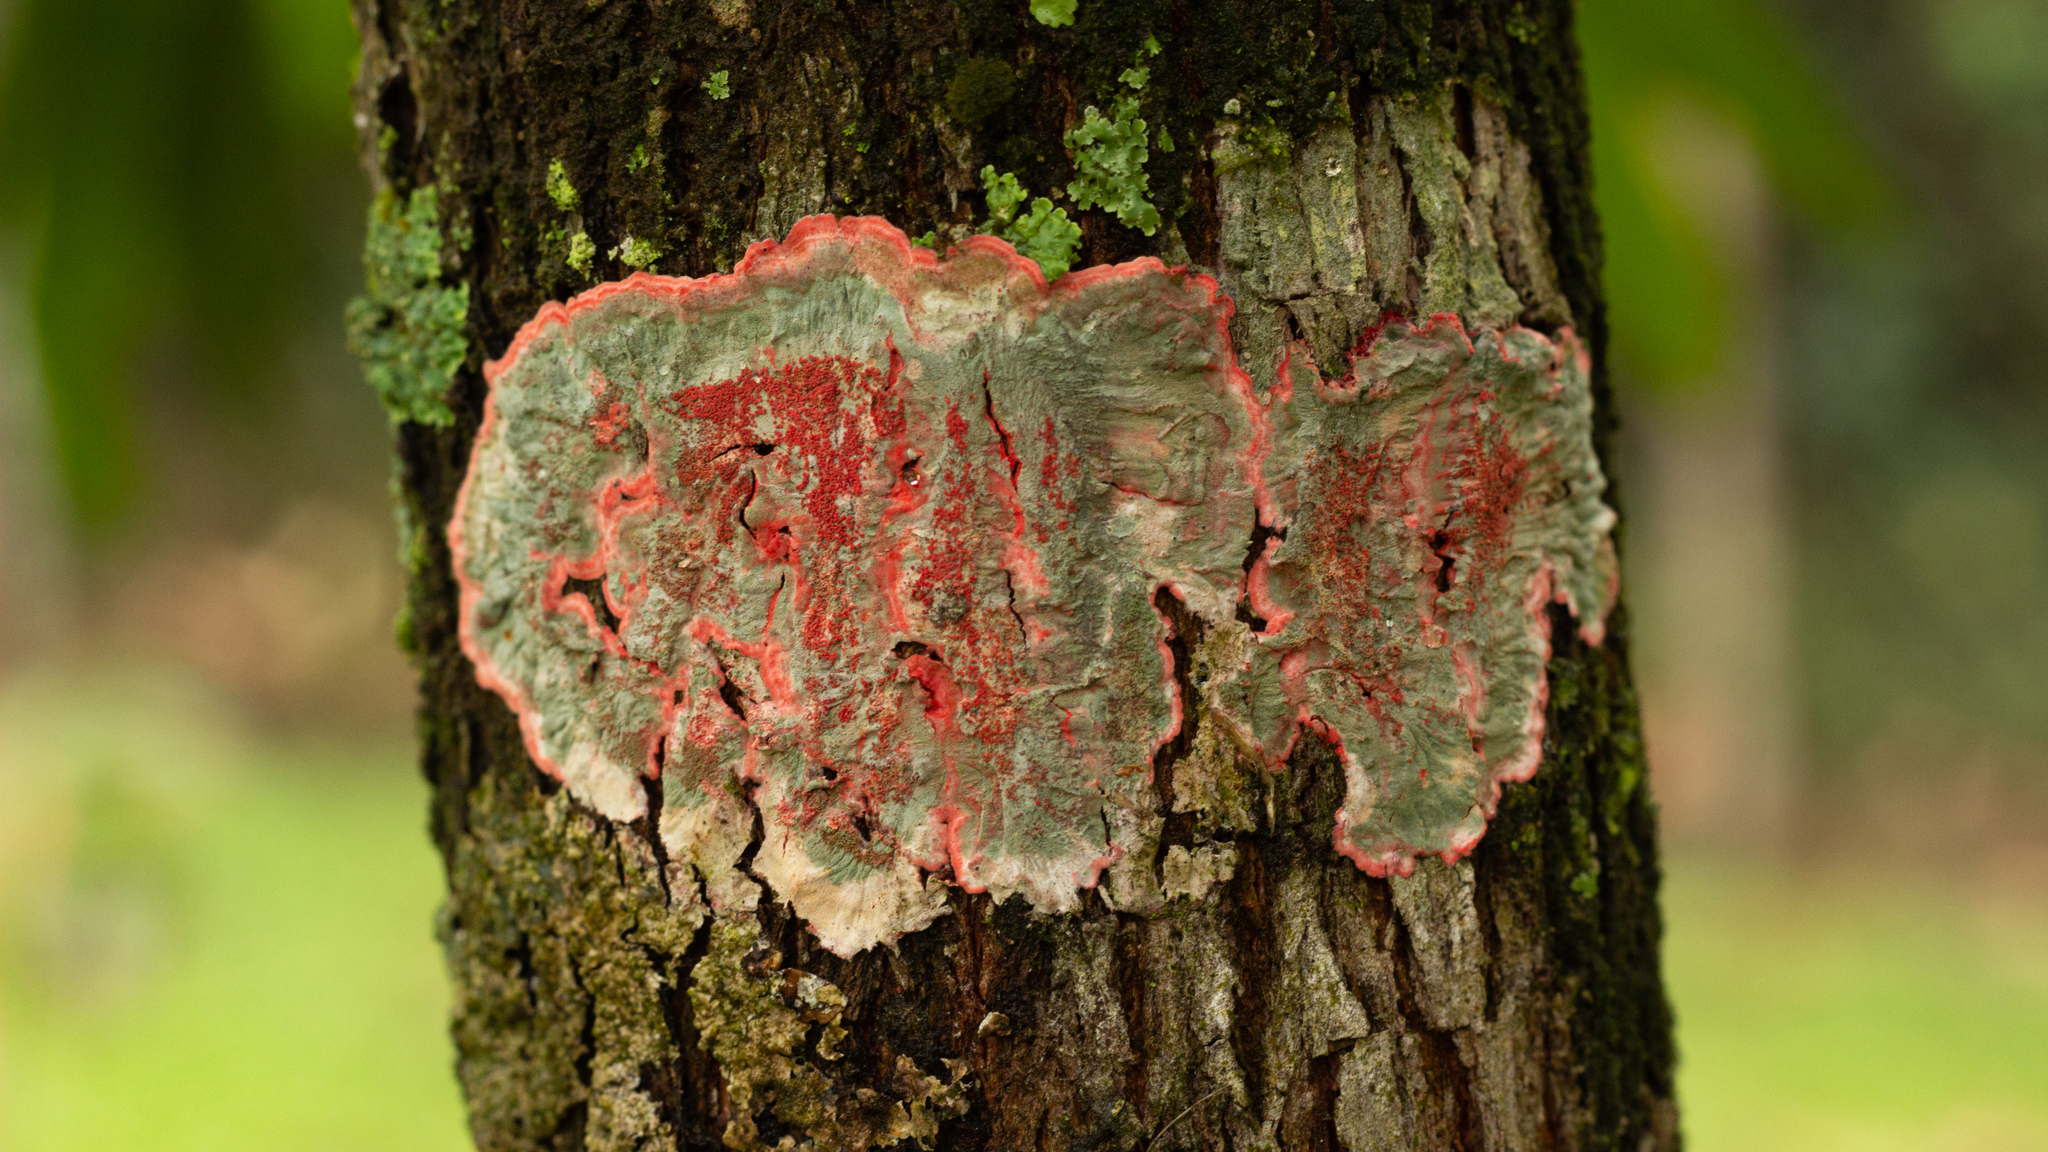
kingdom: Fungi
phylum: Ascomycota
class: Arthoniomycetes
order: Arthoniales
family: Arthoniaceae
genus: Herpothallon
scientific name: Herpothallon rubrocinctum
